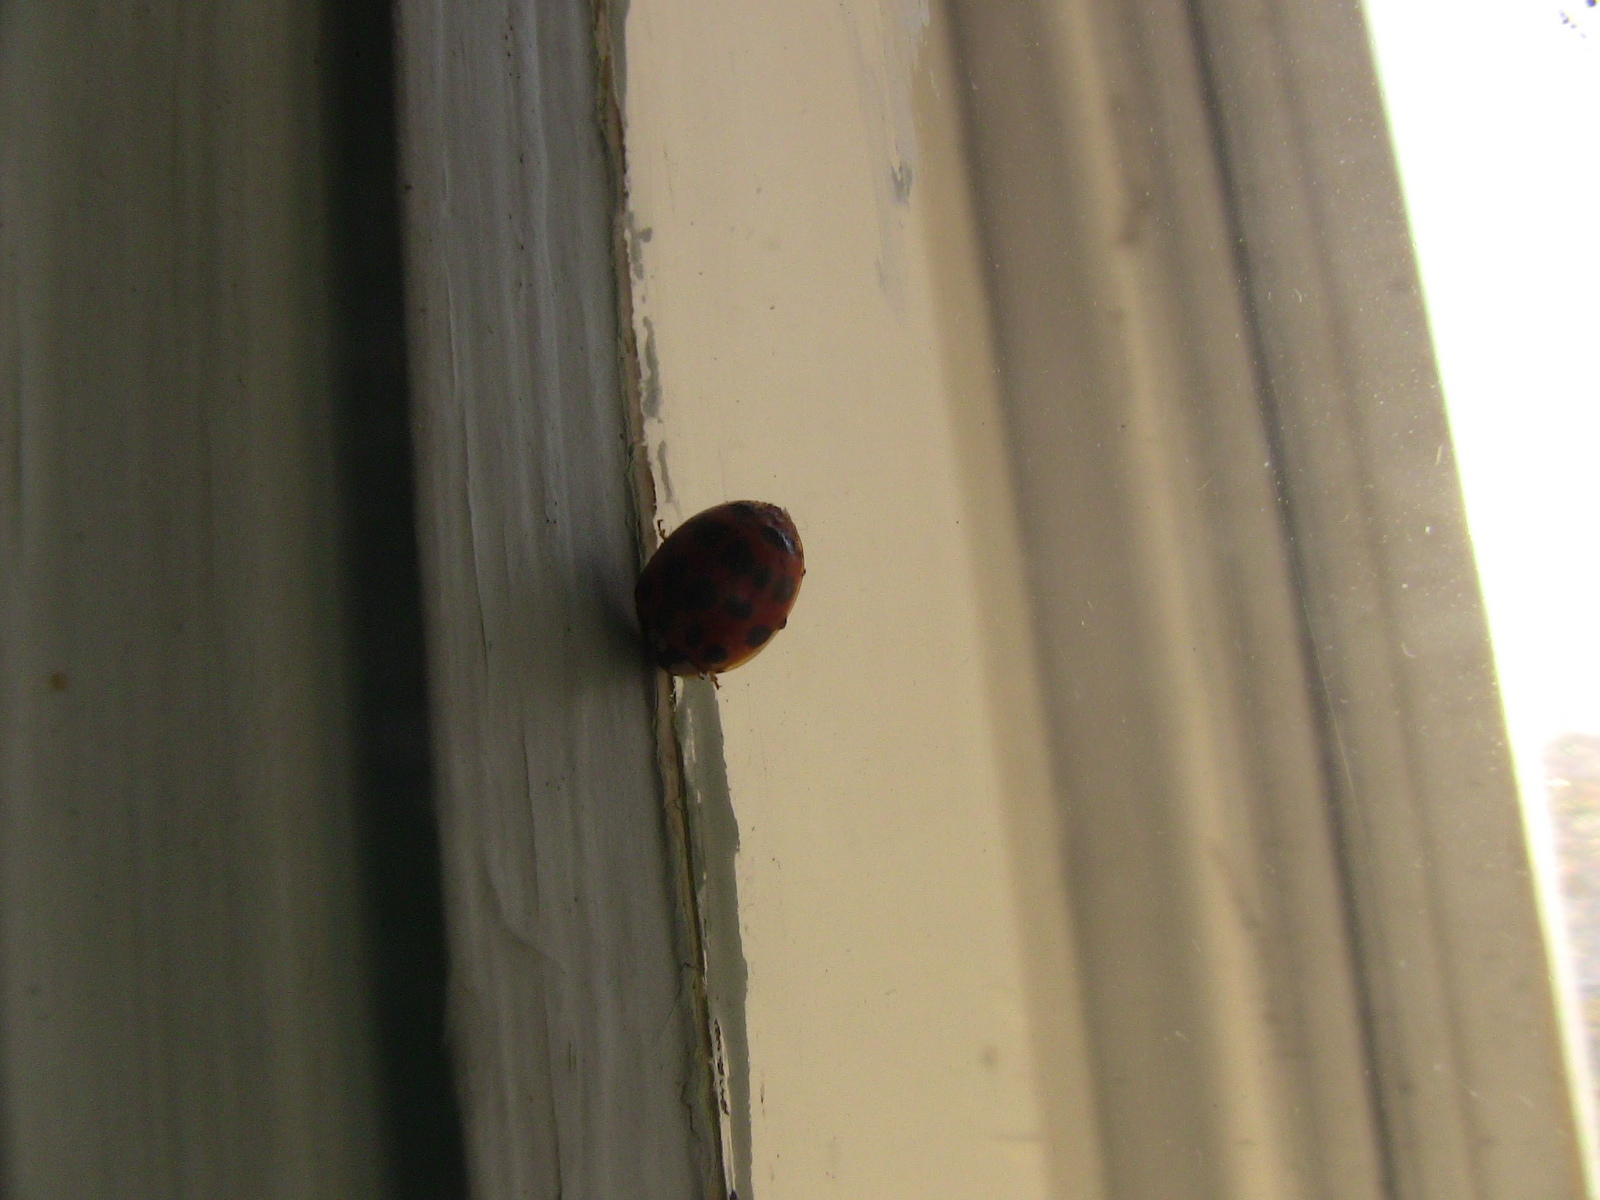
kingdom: Animalia
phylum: Arthropoda
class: Insecta
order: Coleoptera
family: Coccinellidae
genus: Harmonia
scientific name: Harmonia axyridis
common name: Harlequin ladybird
